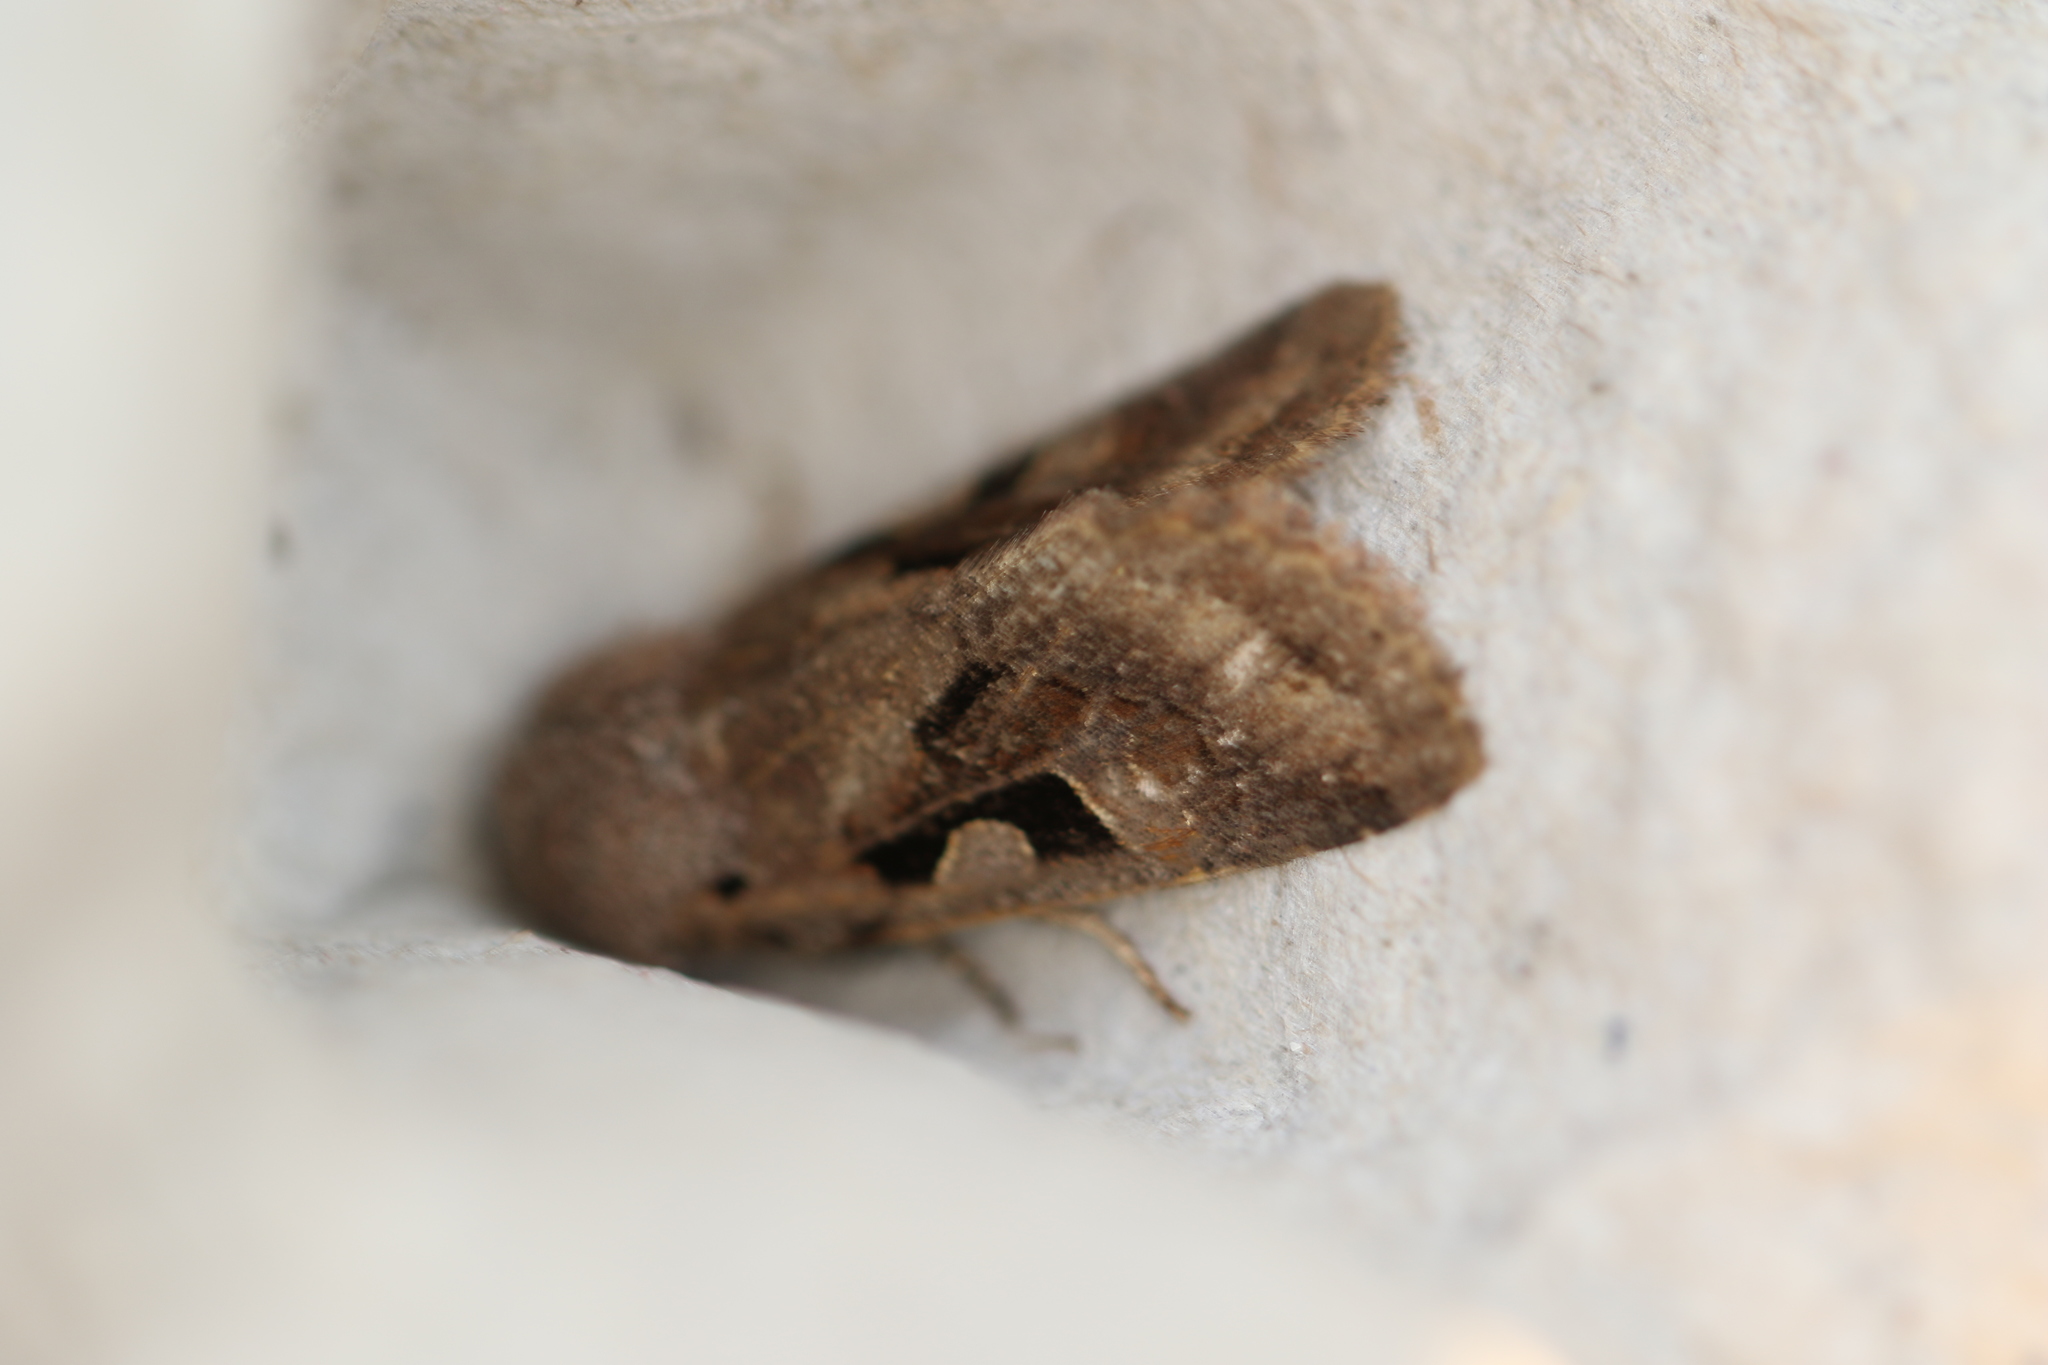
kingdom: Animalia
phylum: Arthropoda
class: Insecta
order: Lepidoptera
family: Noctuidae
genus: Orthosia
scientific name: Orthosia gothica
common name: Hebrew character
